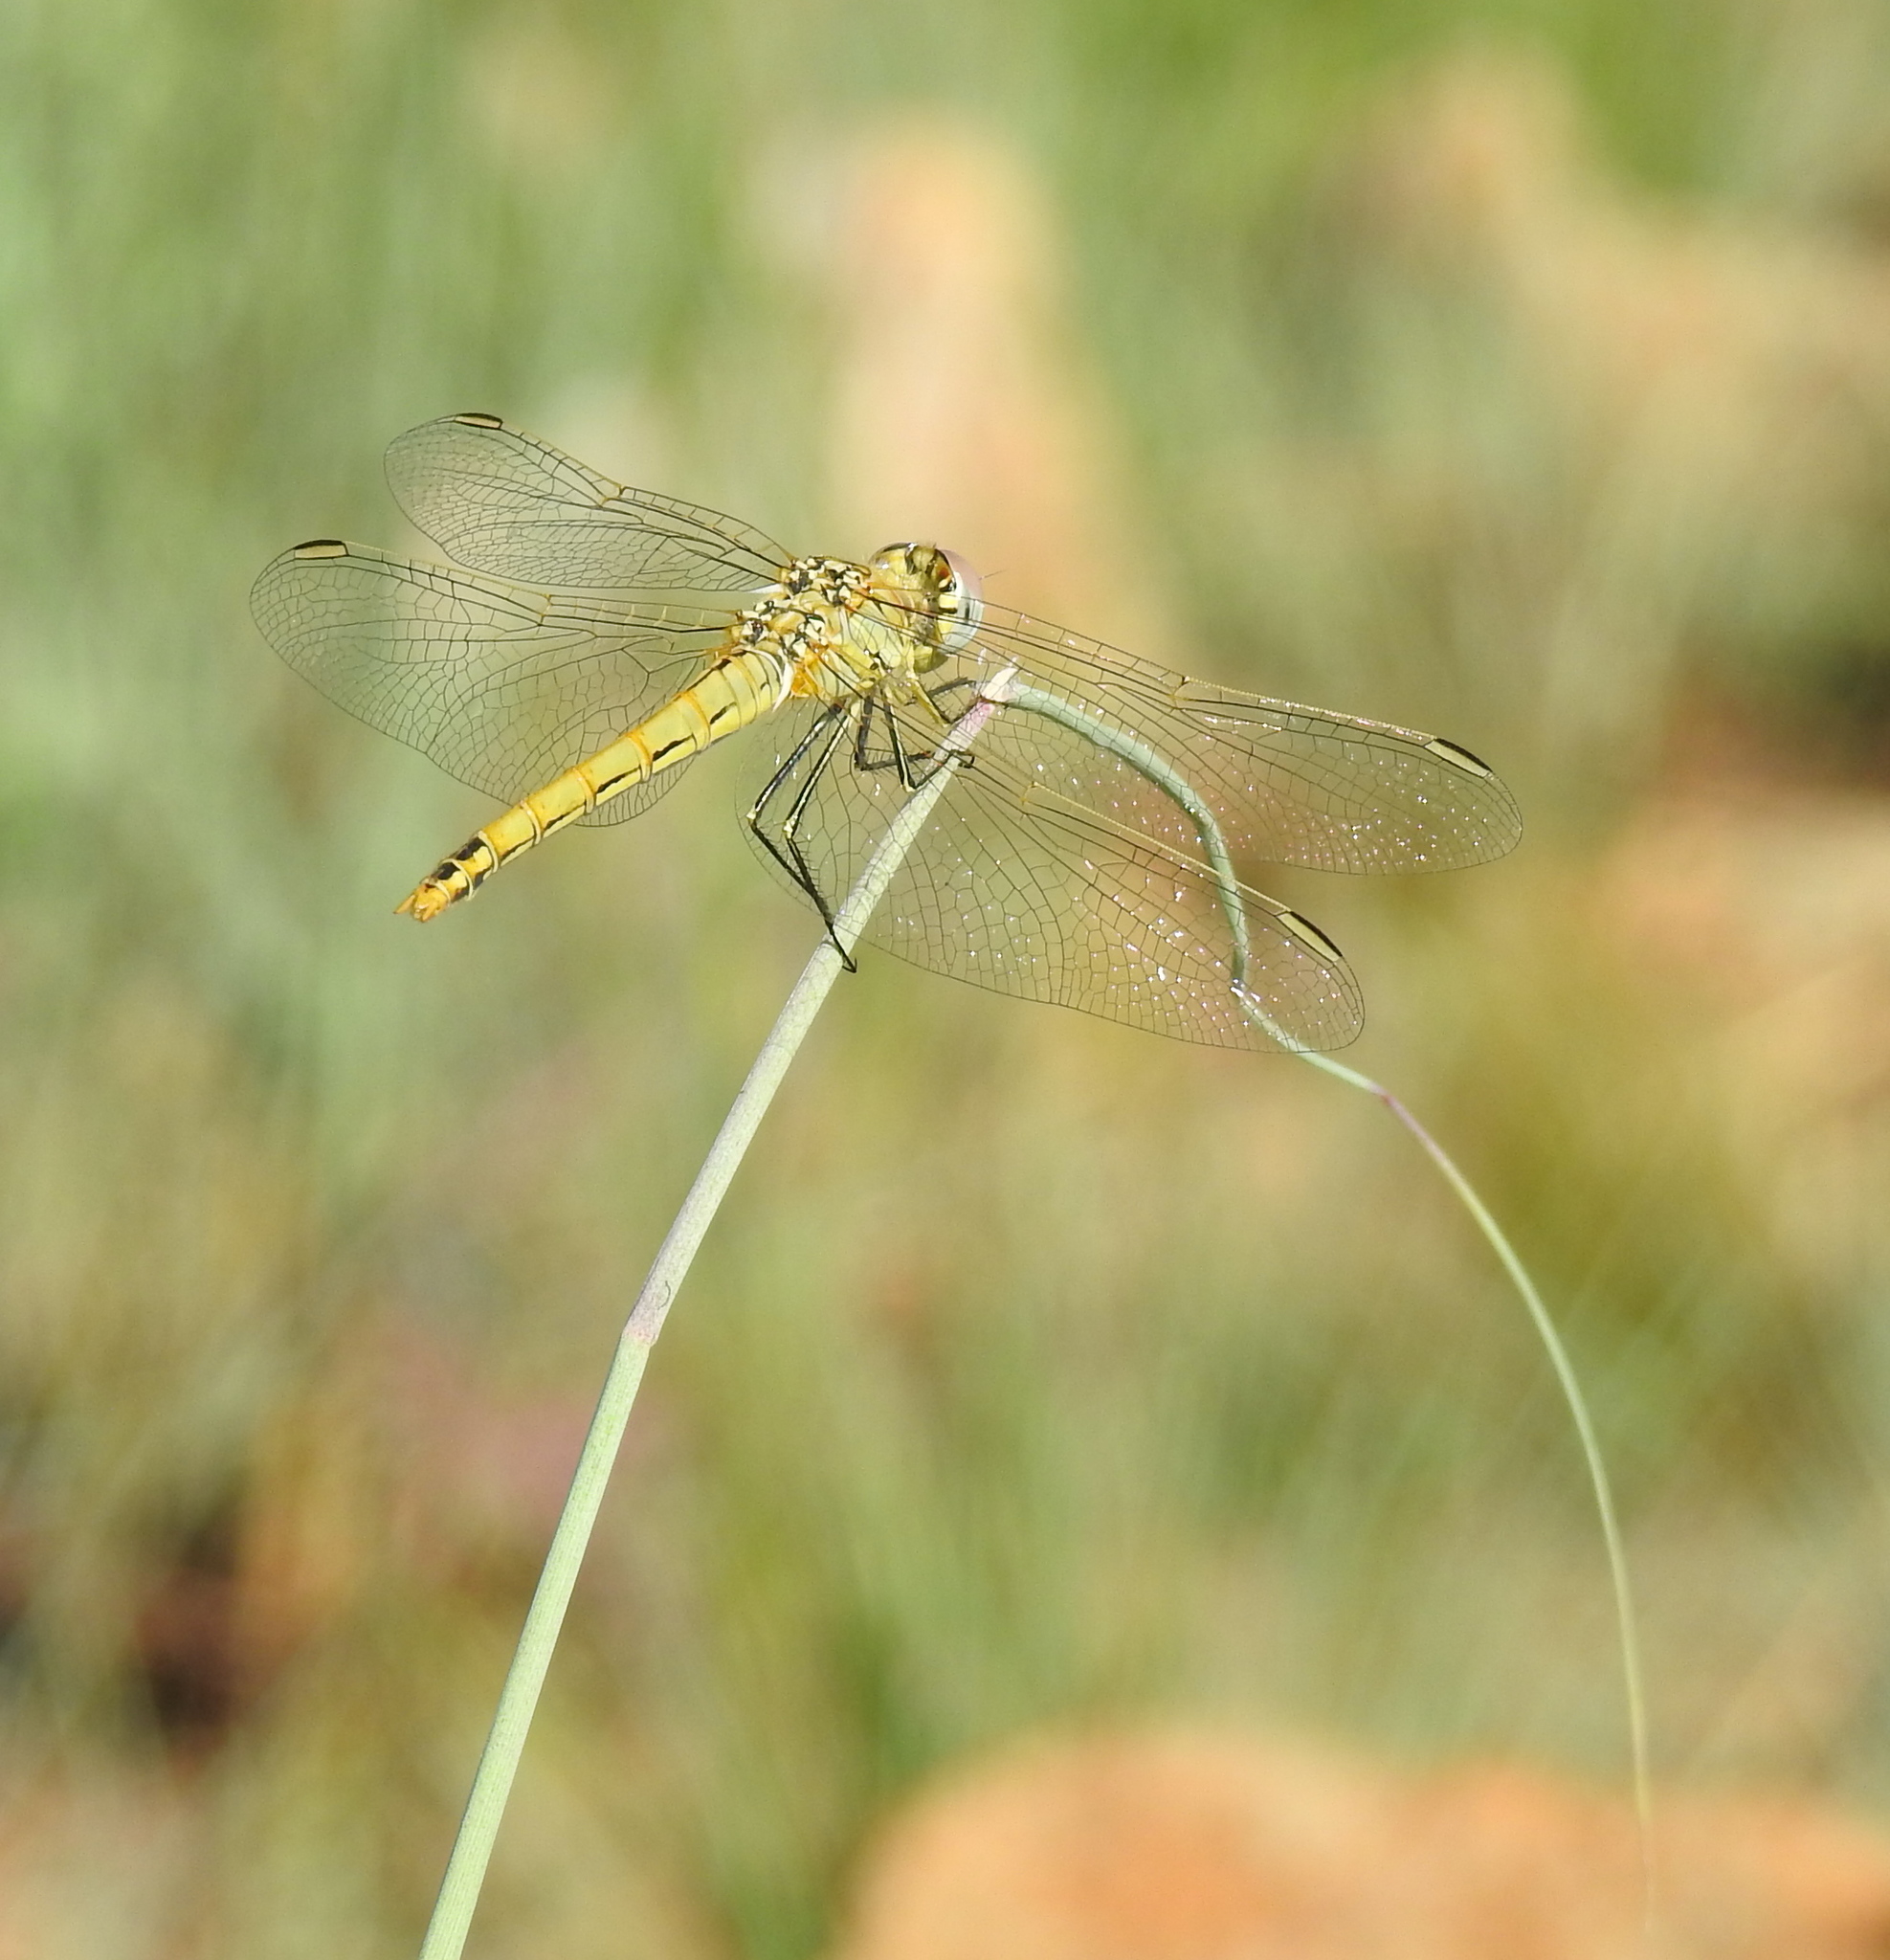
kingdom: Animalia
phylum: Arthropoda
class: Insecta
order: Odonata
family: Libellulidae
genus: Sympetrum
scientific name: Sympetrum fonscolombii
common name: Red-veined darter
